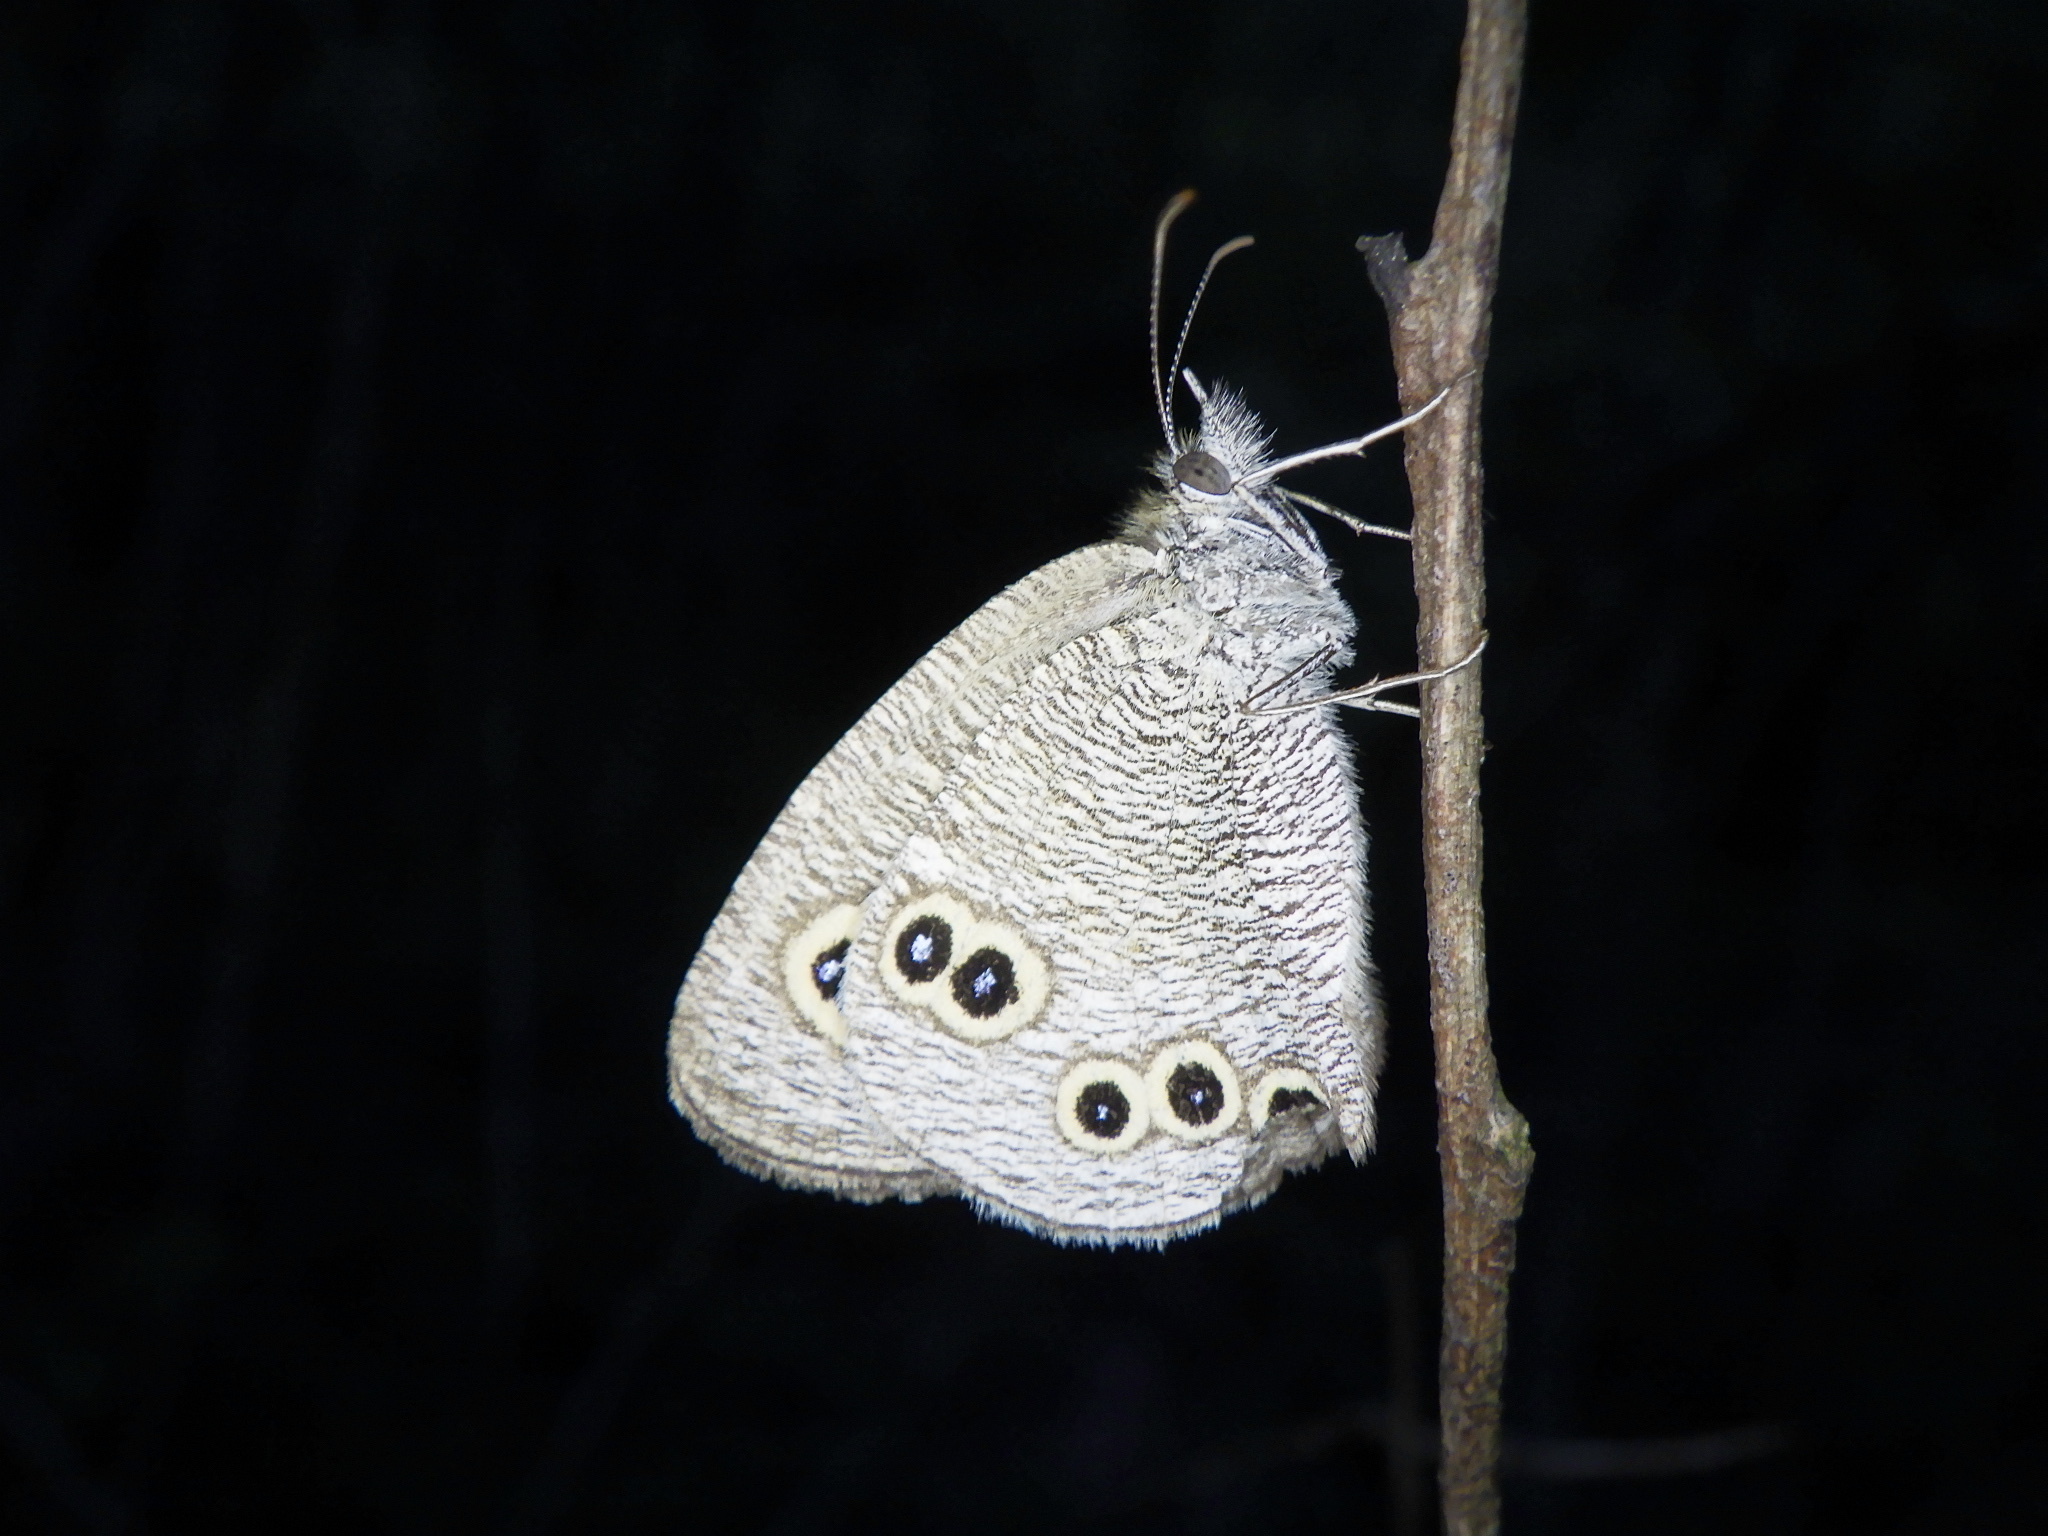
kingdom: Animalia
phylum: Arthropoda
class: Insecta
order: Lepidoptera
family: Nymphalidae
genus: Ypthima
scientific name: Ypthima argus
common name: Common fivering
